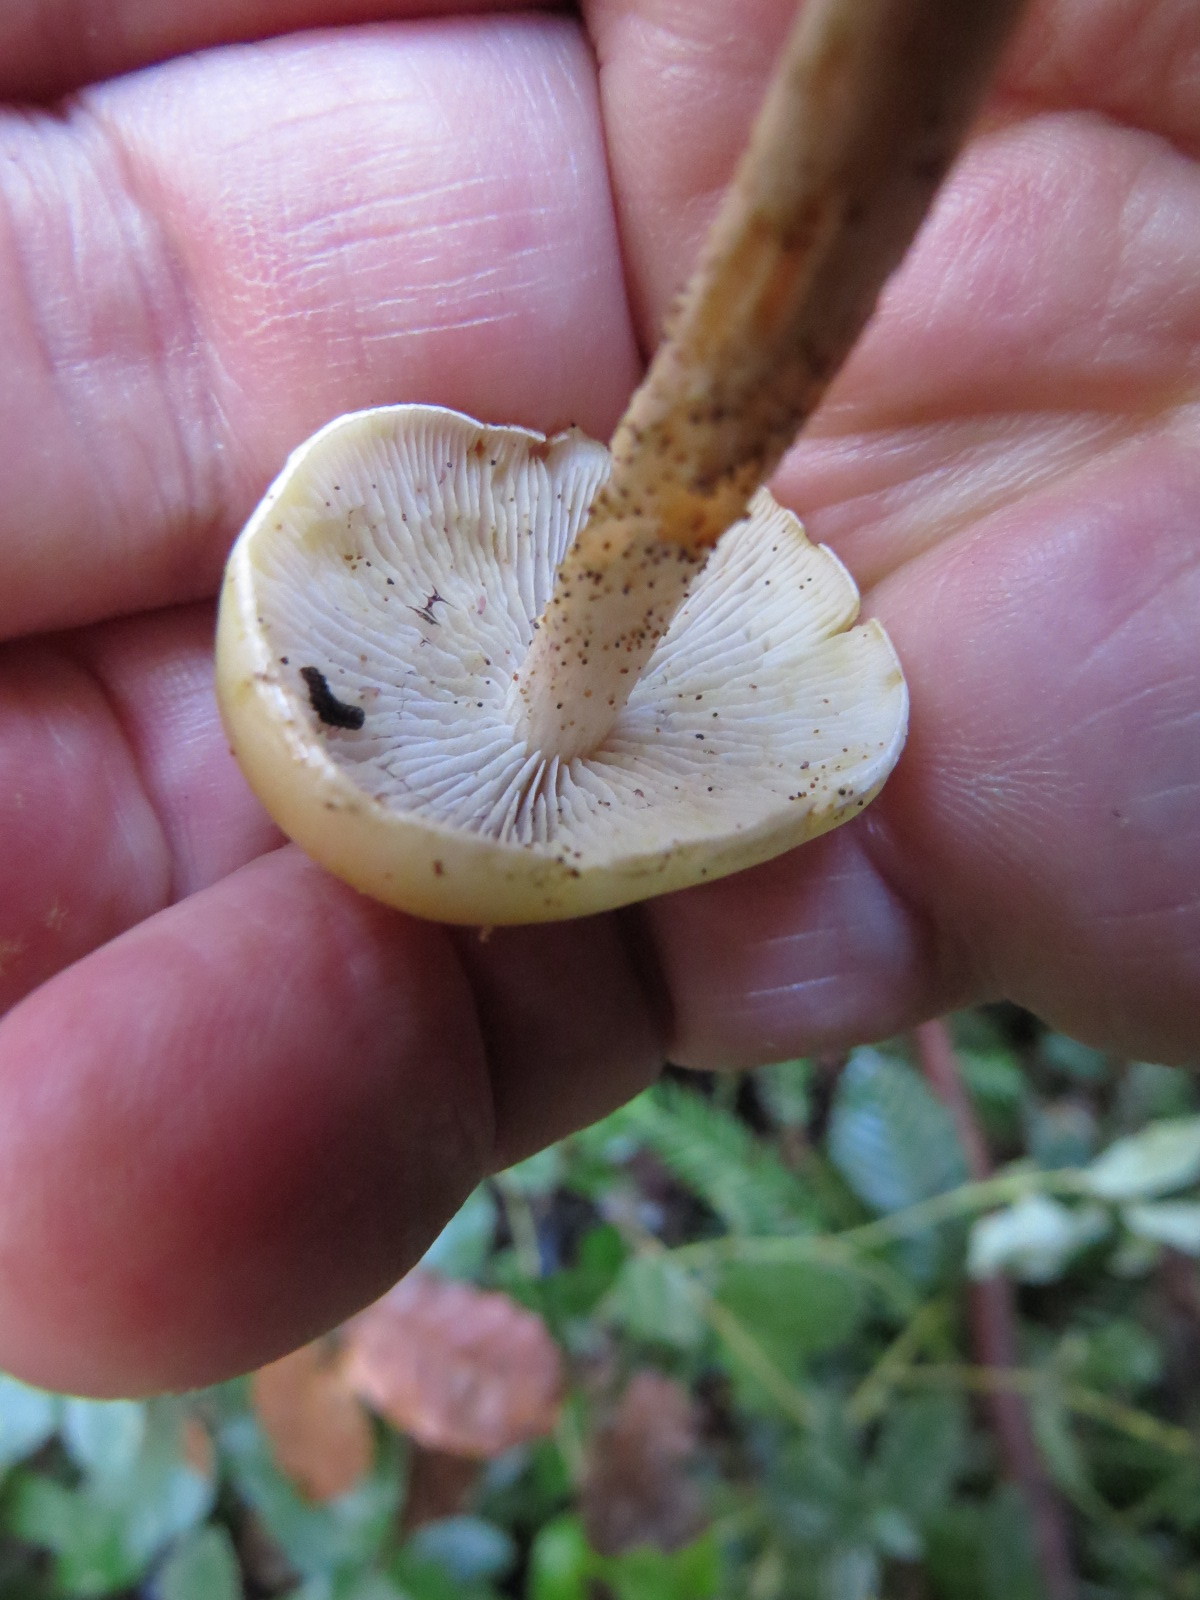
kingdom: Fungi
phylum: Basidiomycota
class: Agaricomycetes
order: Agaricales
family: Strophariaceae
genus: Hypholoma
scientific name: Hypholoma capnoides
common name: Conifer tuft
